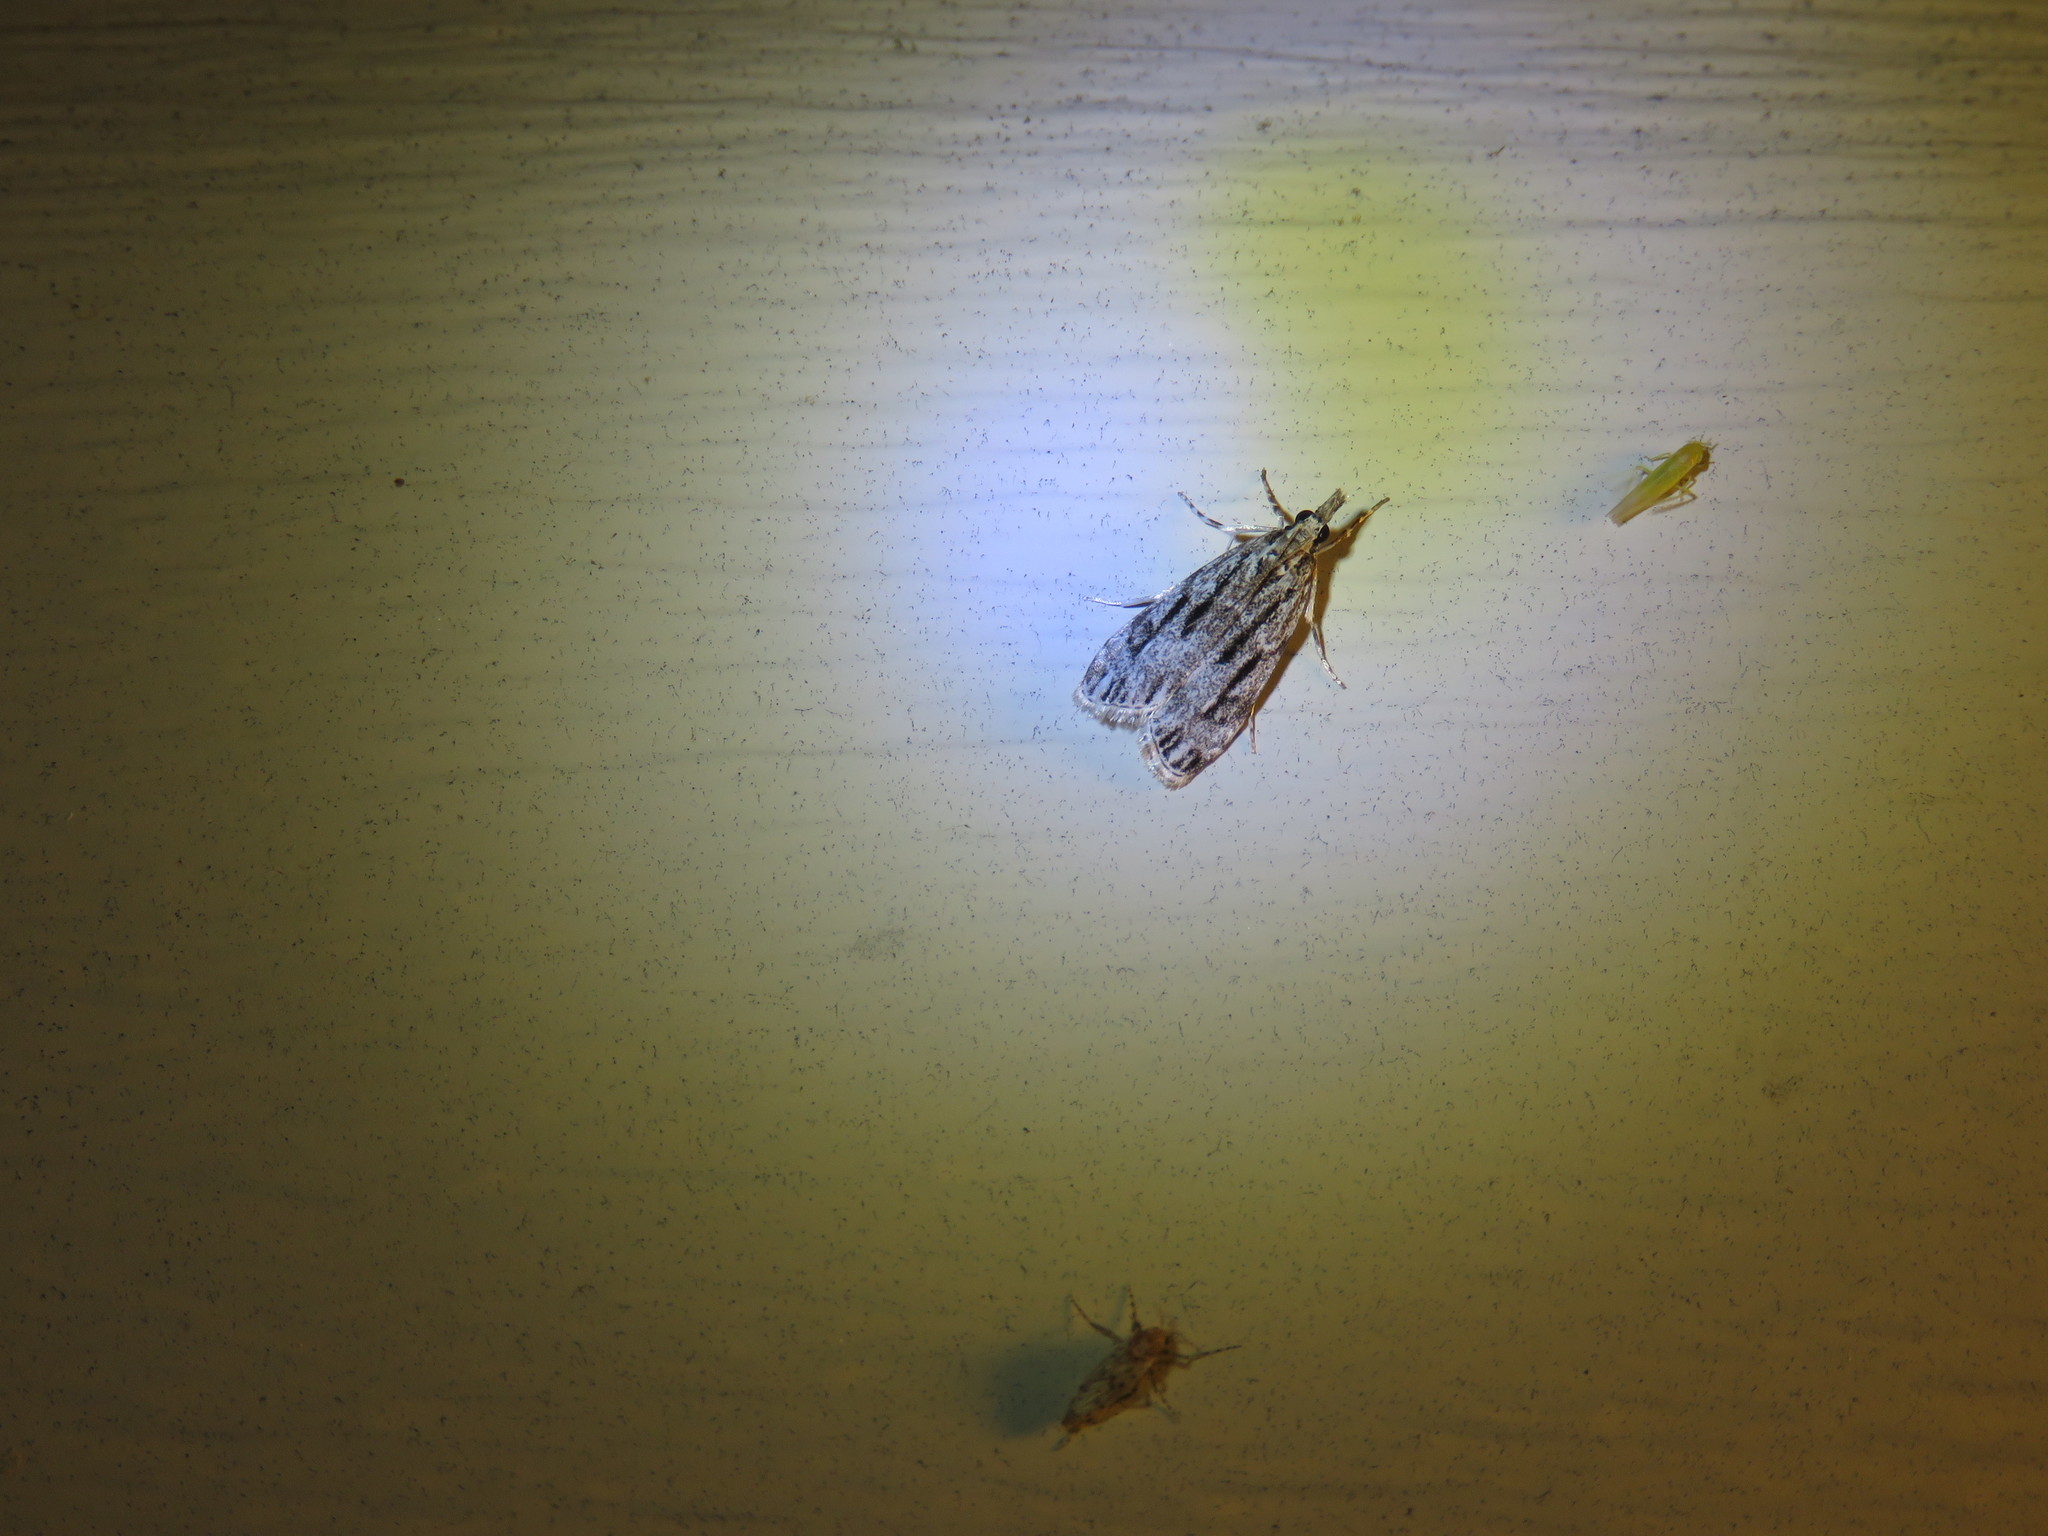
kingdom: Animalia
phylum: Arthropoda
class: Insecta
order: Lepidoptera
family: Crambidae
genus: Eudonia
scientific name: Eudonia strigalis
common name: Striped eudonia moth
